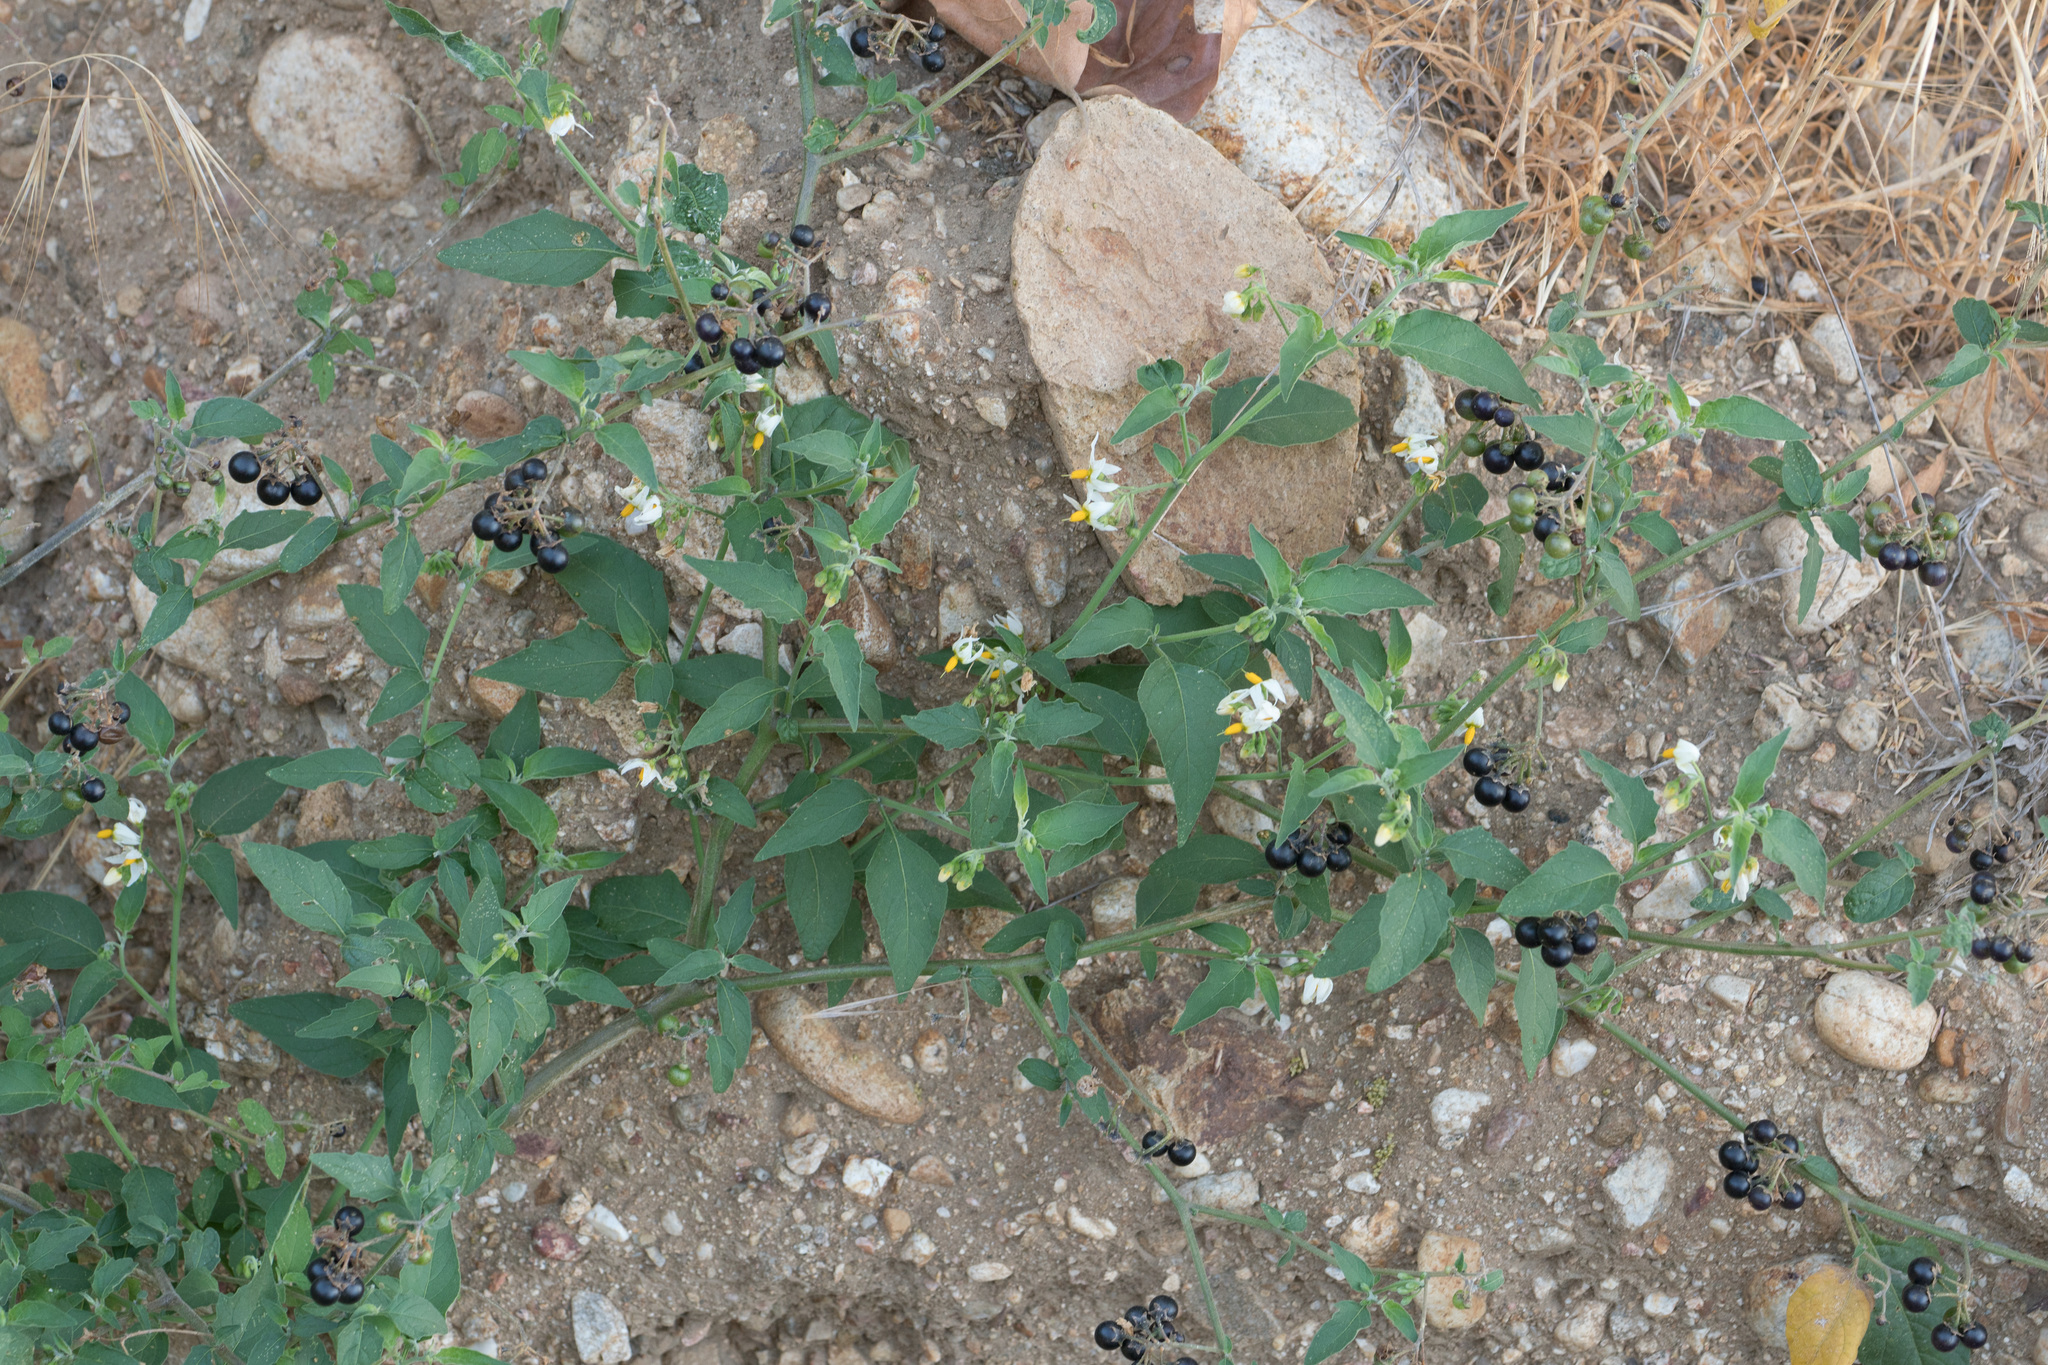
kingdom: Plantae
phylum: Tracheophyta
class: Magnoliopsida
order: Solanales
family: Solanaceae
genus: Solanum
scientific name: Solanum douglasii
